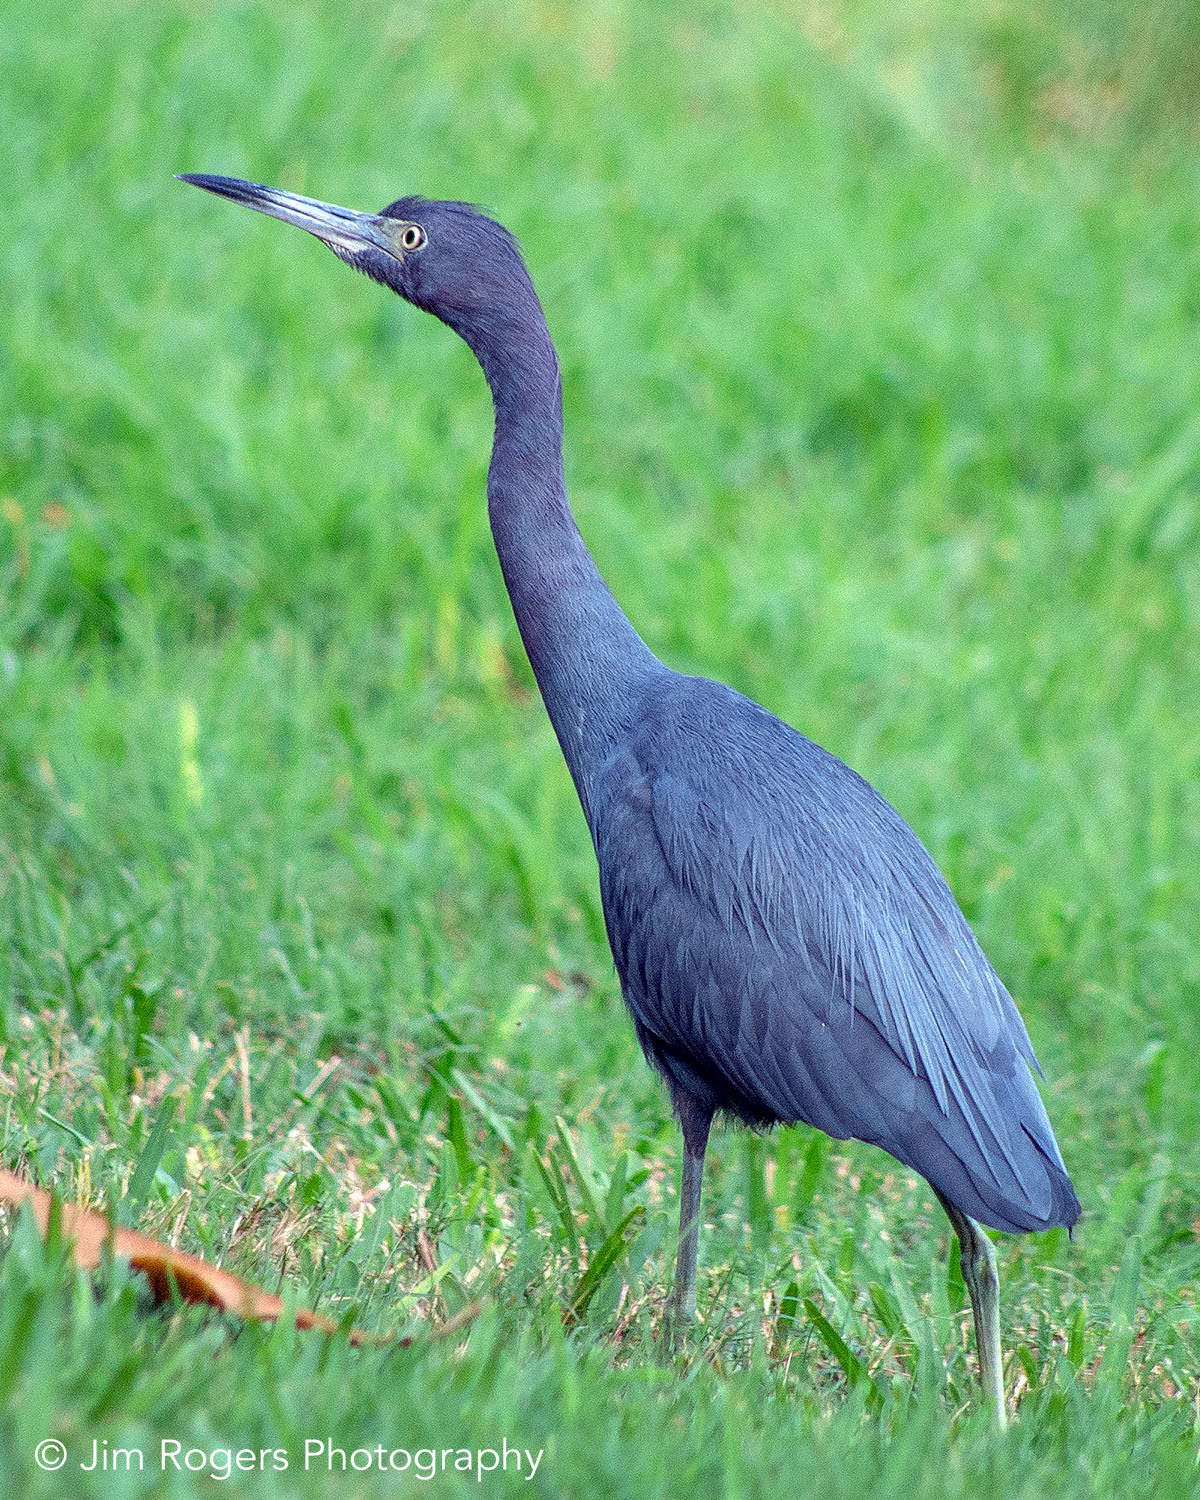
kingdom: Animalia
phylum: Chordata
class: Aves
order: Pelecaniformes
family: Ardeidae
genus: Egretta
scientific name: Egretta caerulea
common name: Little blue heron
